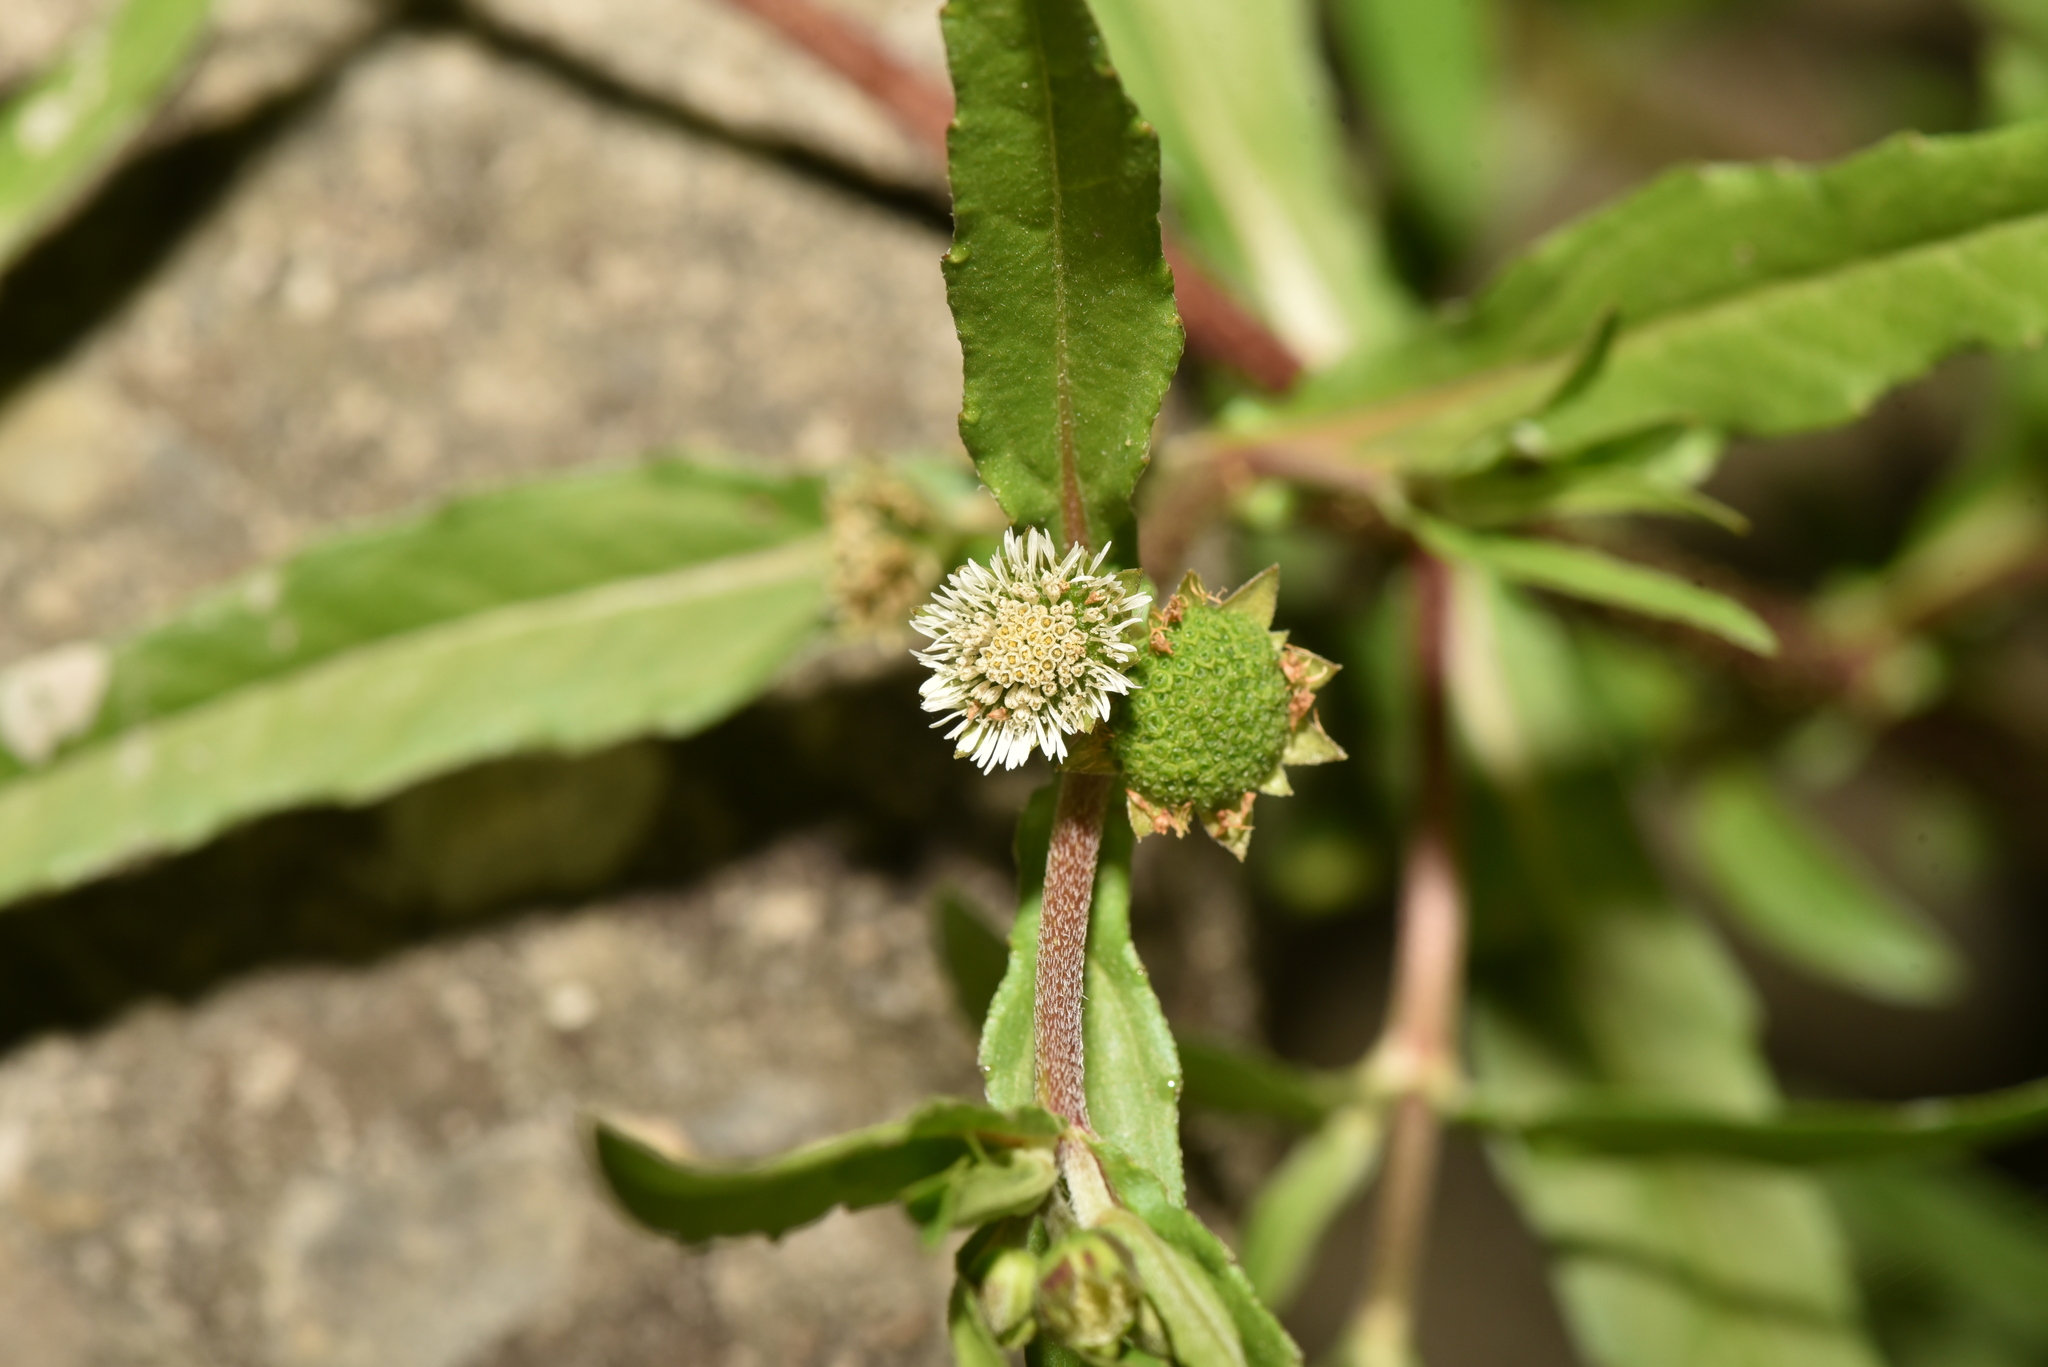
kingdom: Plantae
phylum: Tracheophyta
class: Magnoliopsida
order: Asterales
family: Asteraceae
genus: Eclipta
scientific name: Eclipta prostrata
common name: False daisy
